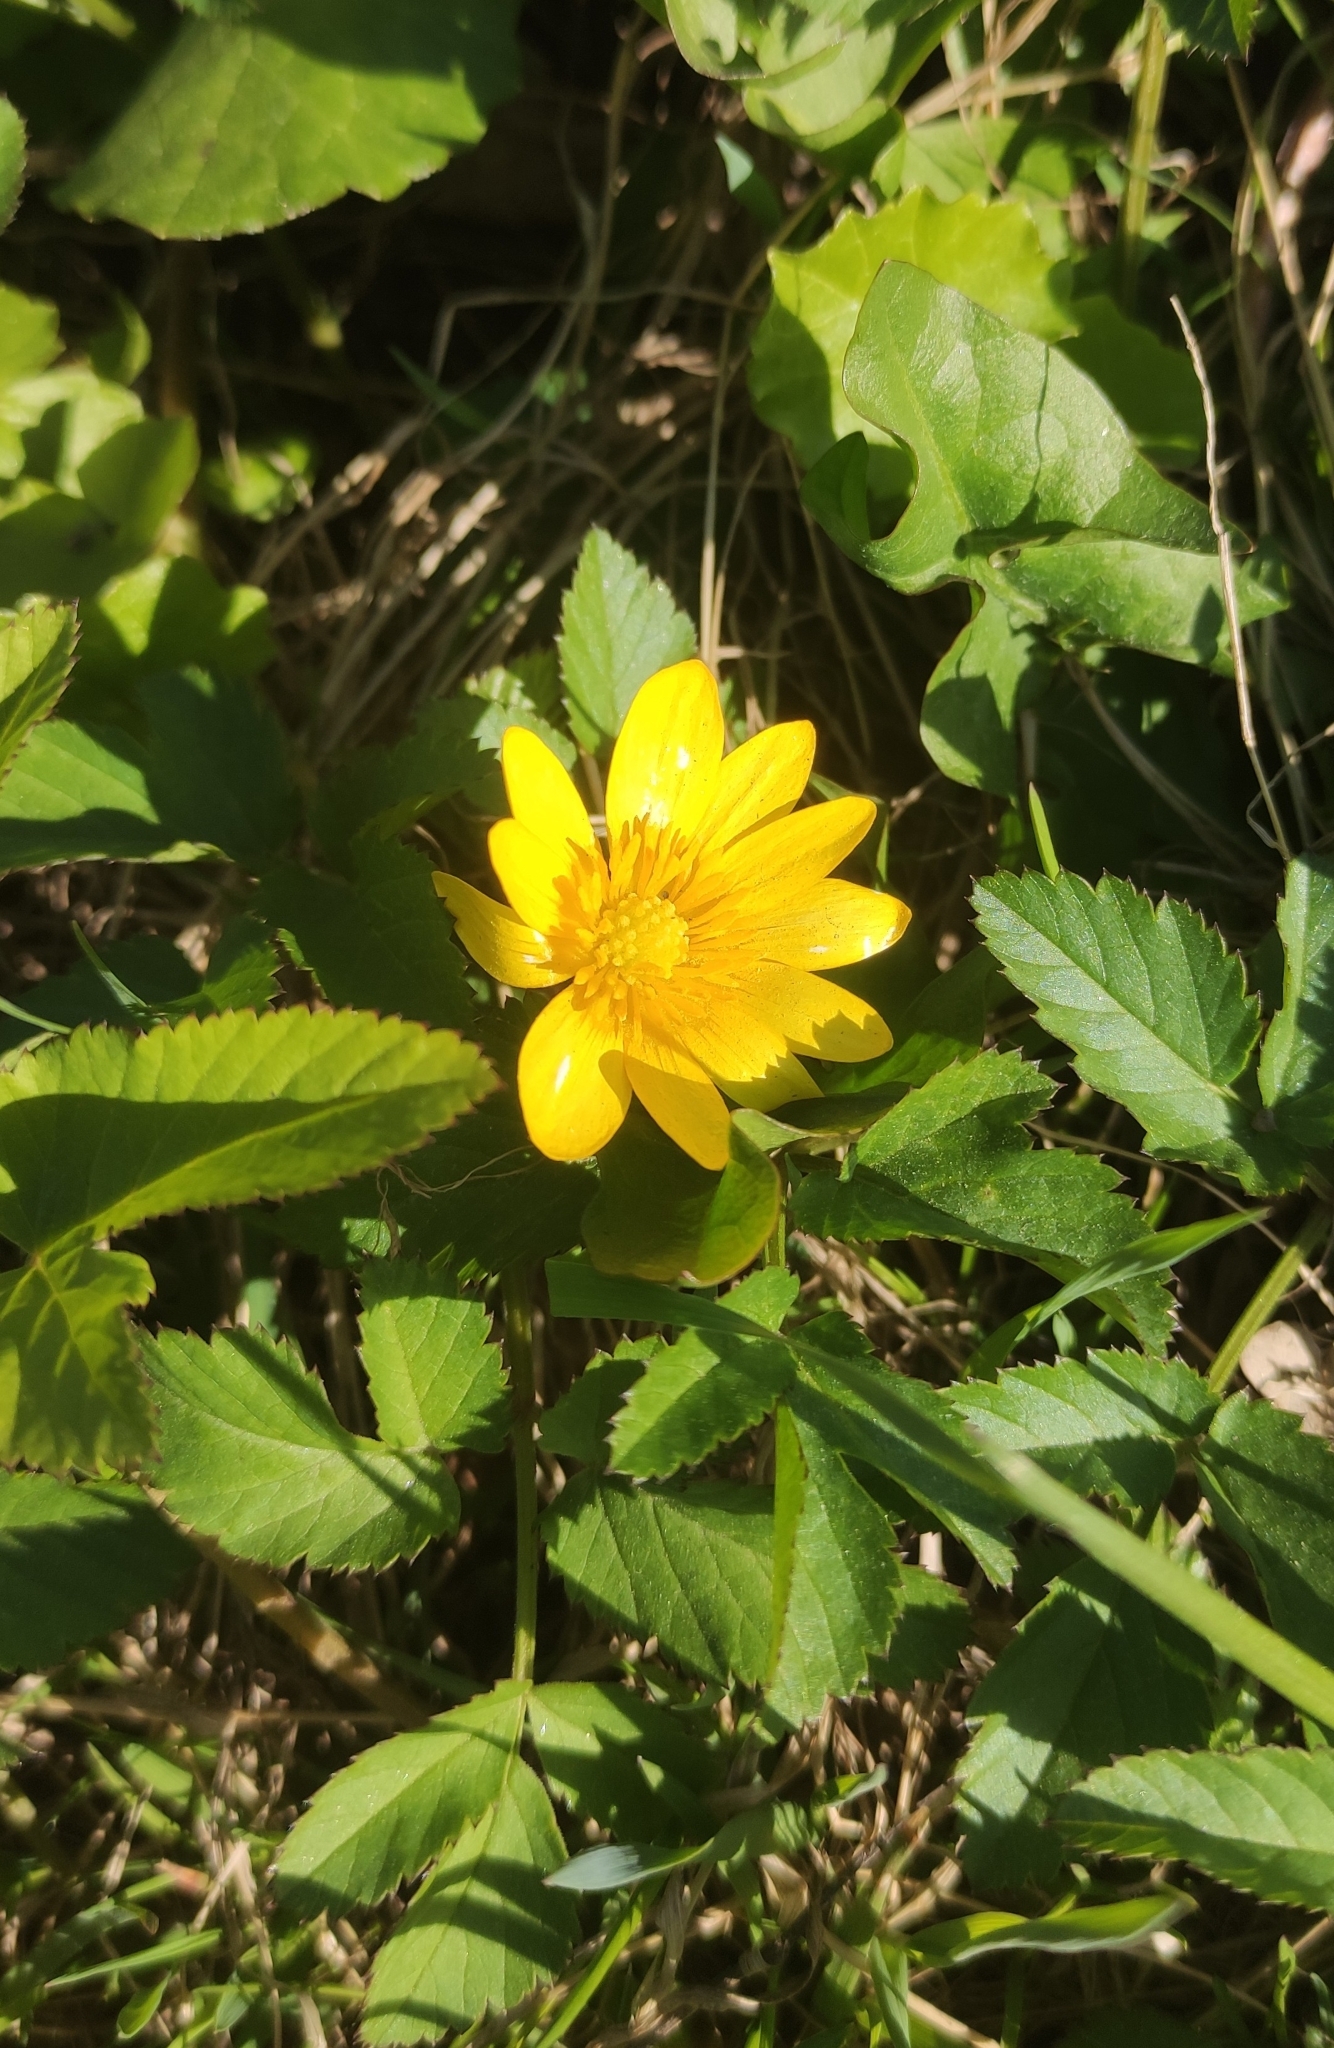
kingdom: Plantae
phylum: Tracheophyta
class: Magnoliopsida
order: Ranunculales
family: Ranunculaceae
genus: Ficaria
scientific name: Ficaria verna
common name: Lesser celandine
